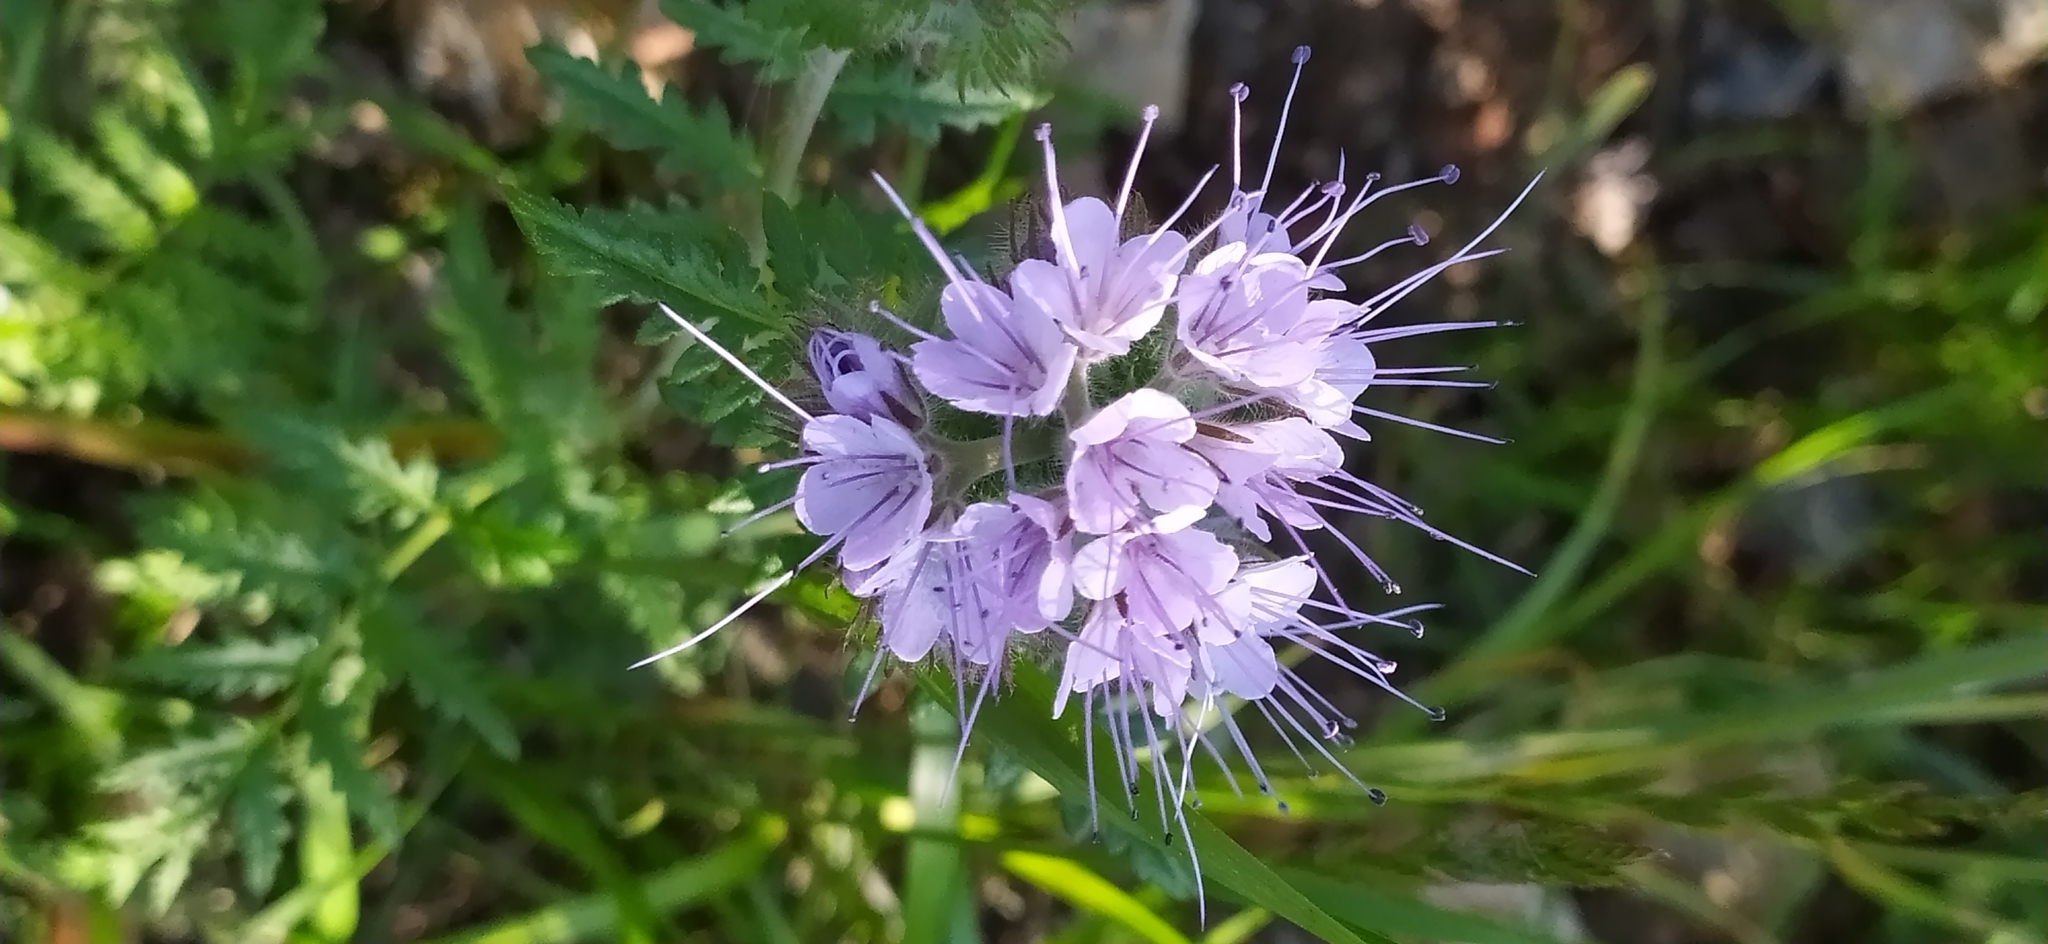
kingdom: Plantae
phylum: Tracheophyta
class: Magnoliopsida
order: Boraginales
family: Hydrophyllaceae
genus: Phacelia
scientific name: Phacelia tanacetifolia
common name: Phacelia
